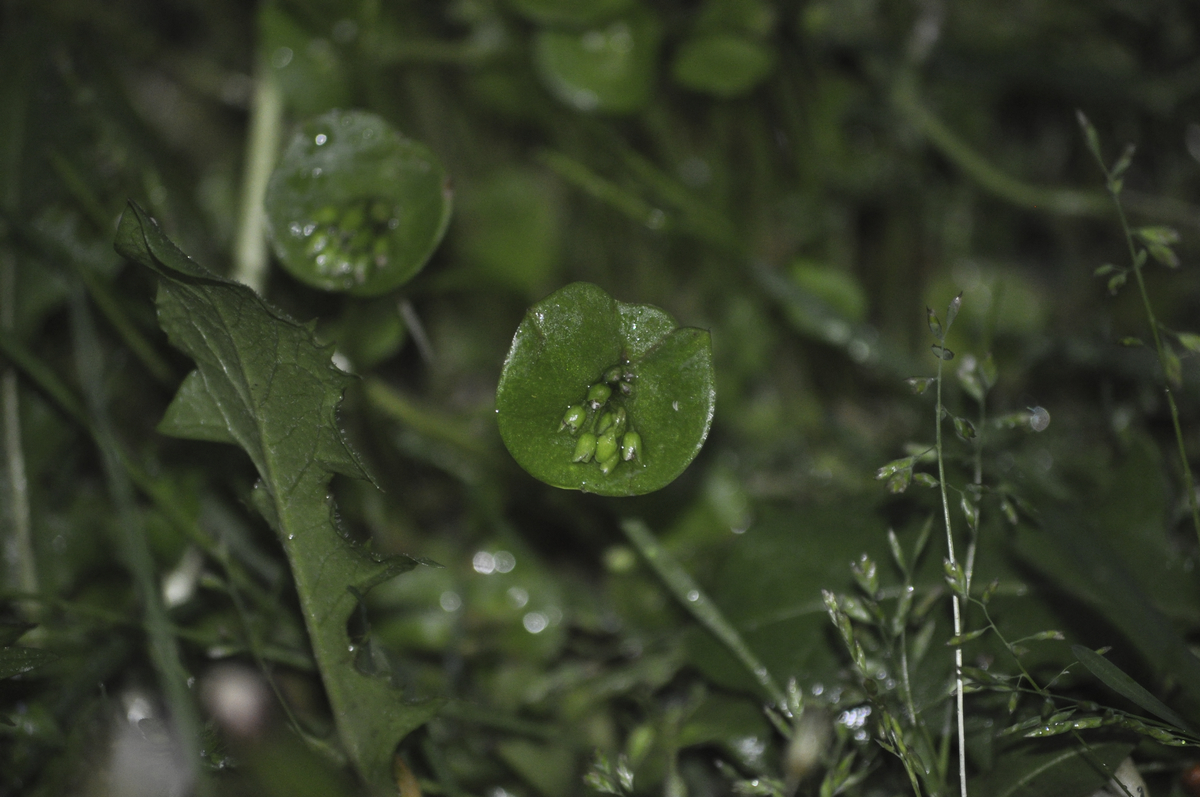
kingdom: Plantae
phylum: Tracheophyta
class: Magnoliopsida
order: Caryophyllales
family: Montiaceae
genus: Claytonia
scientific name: Claytonia perfoliata
